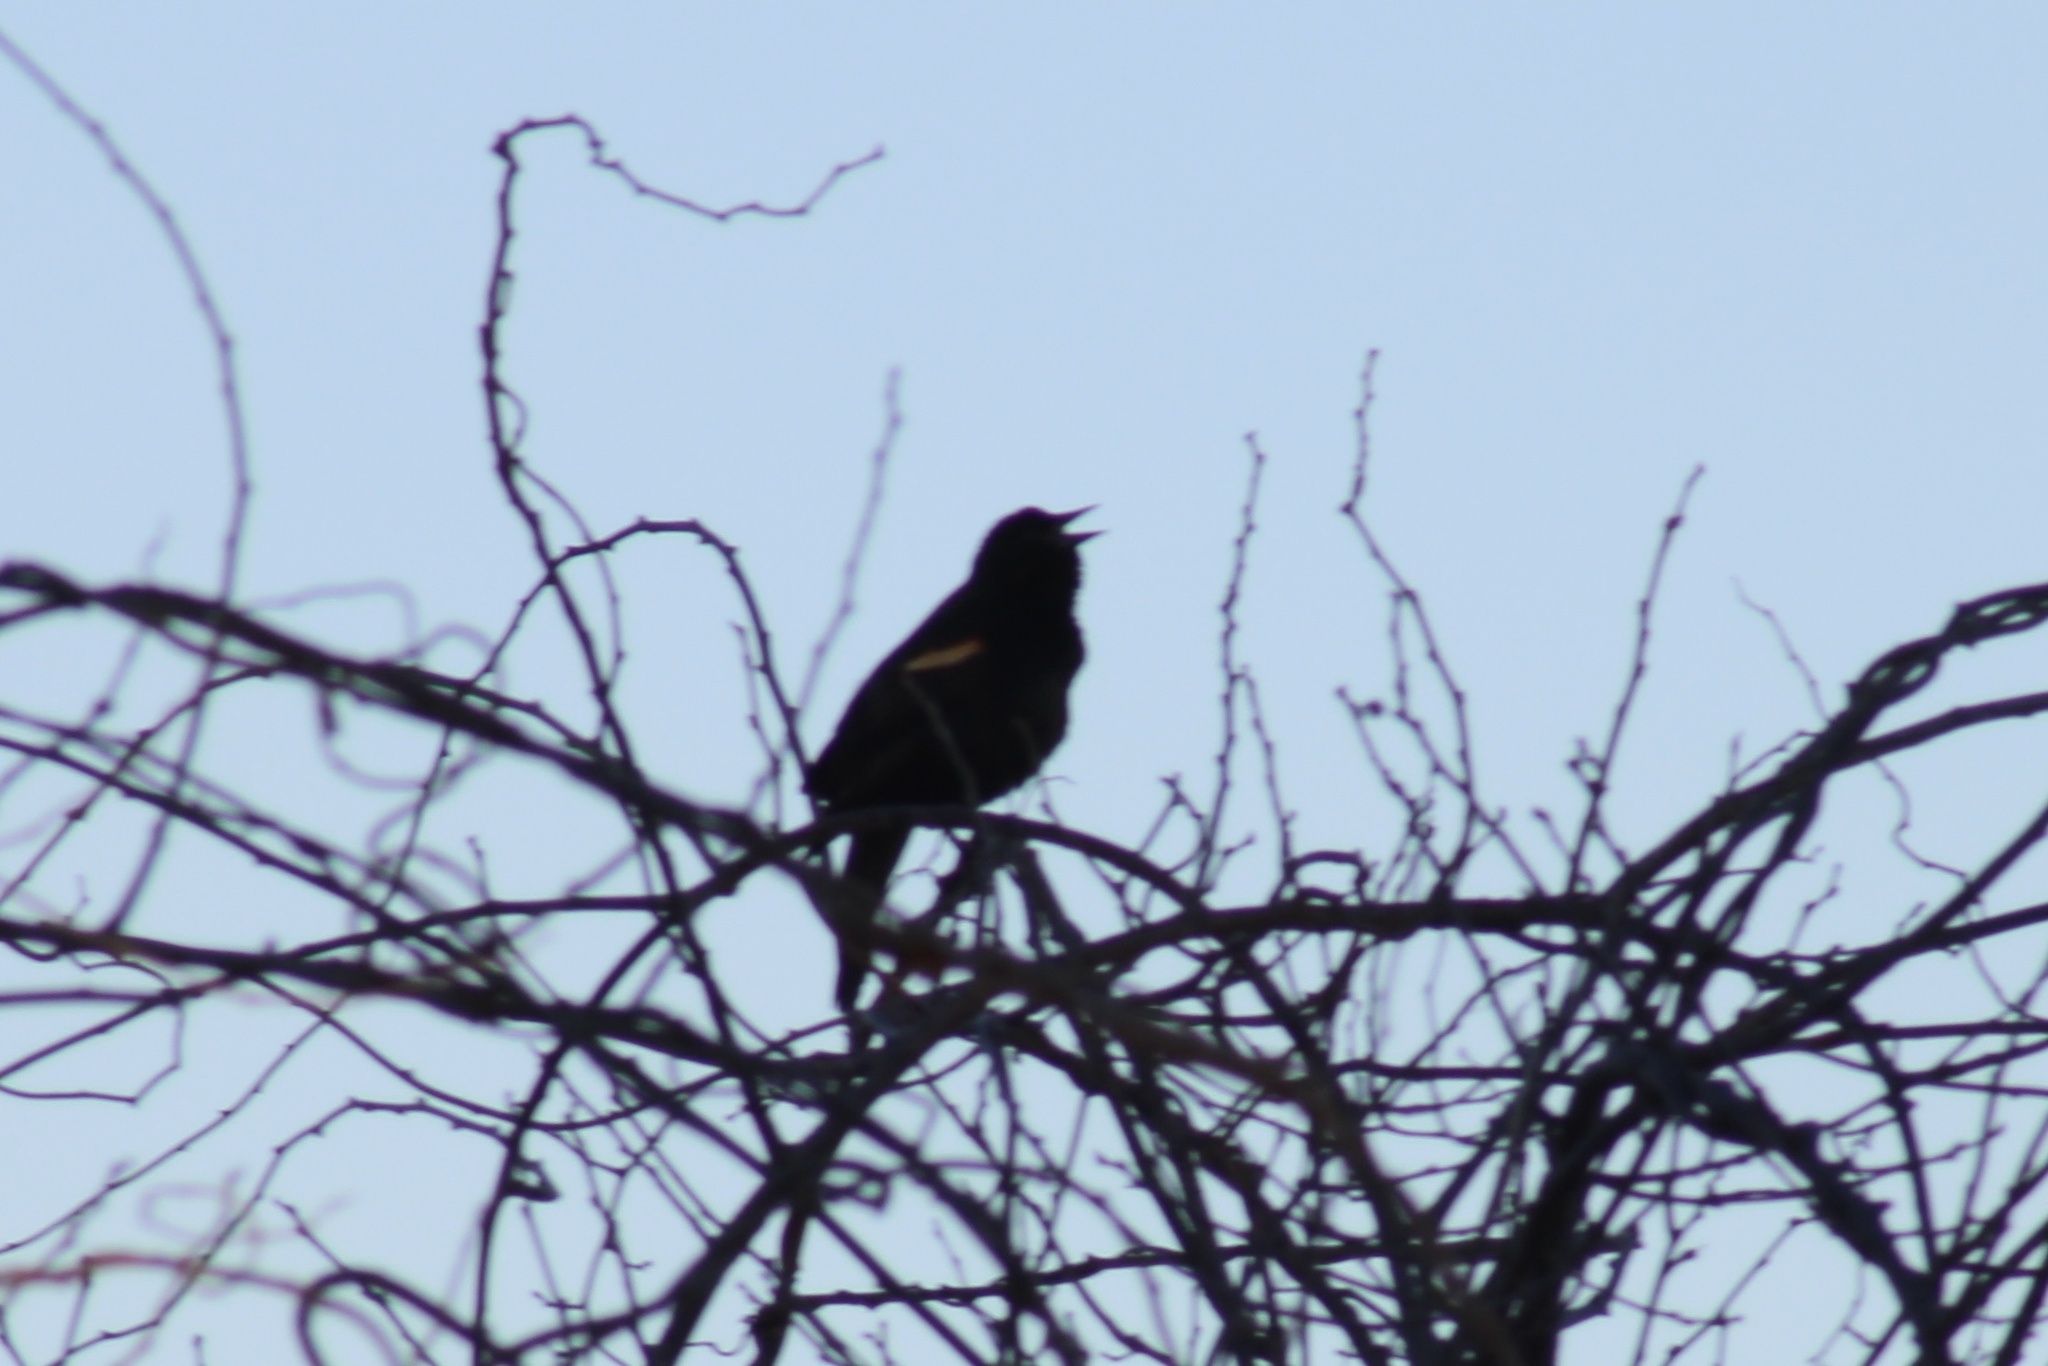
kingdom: Animalia
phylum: Chordata
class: Aves
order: Passeriformes
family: Icteridae
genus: Agelaius
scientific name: Agelaius phoeniceus
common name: Red-winged blackbird
